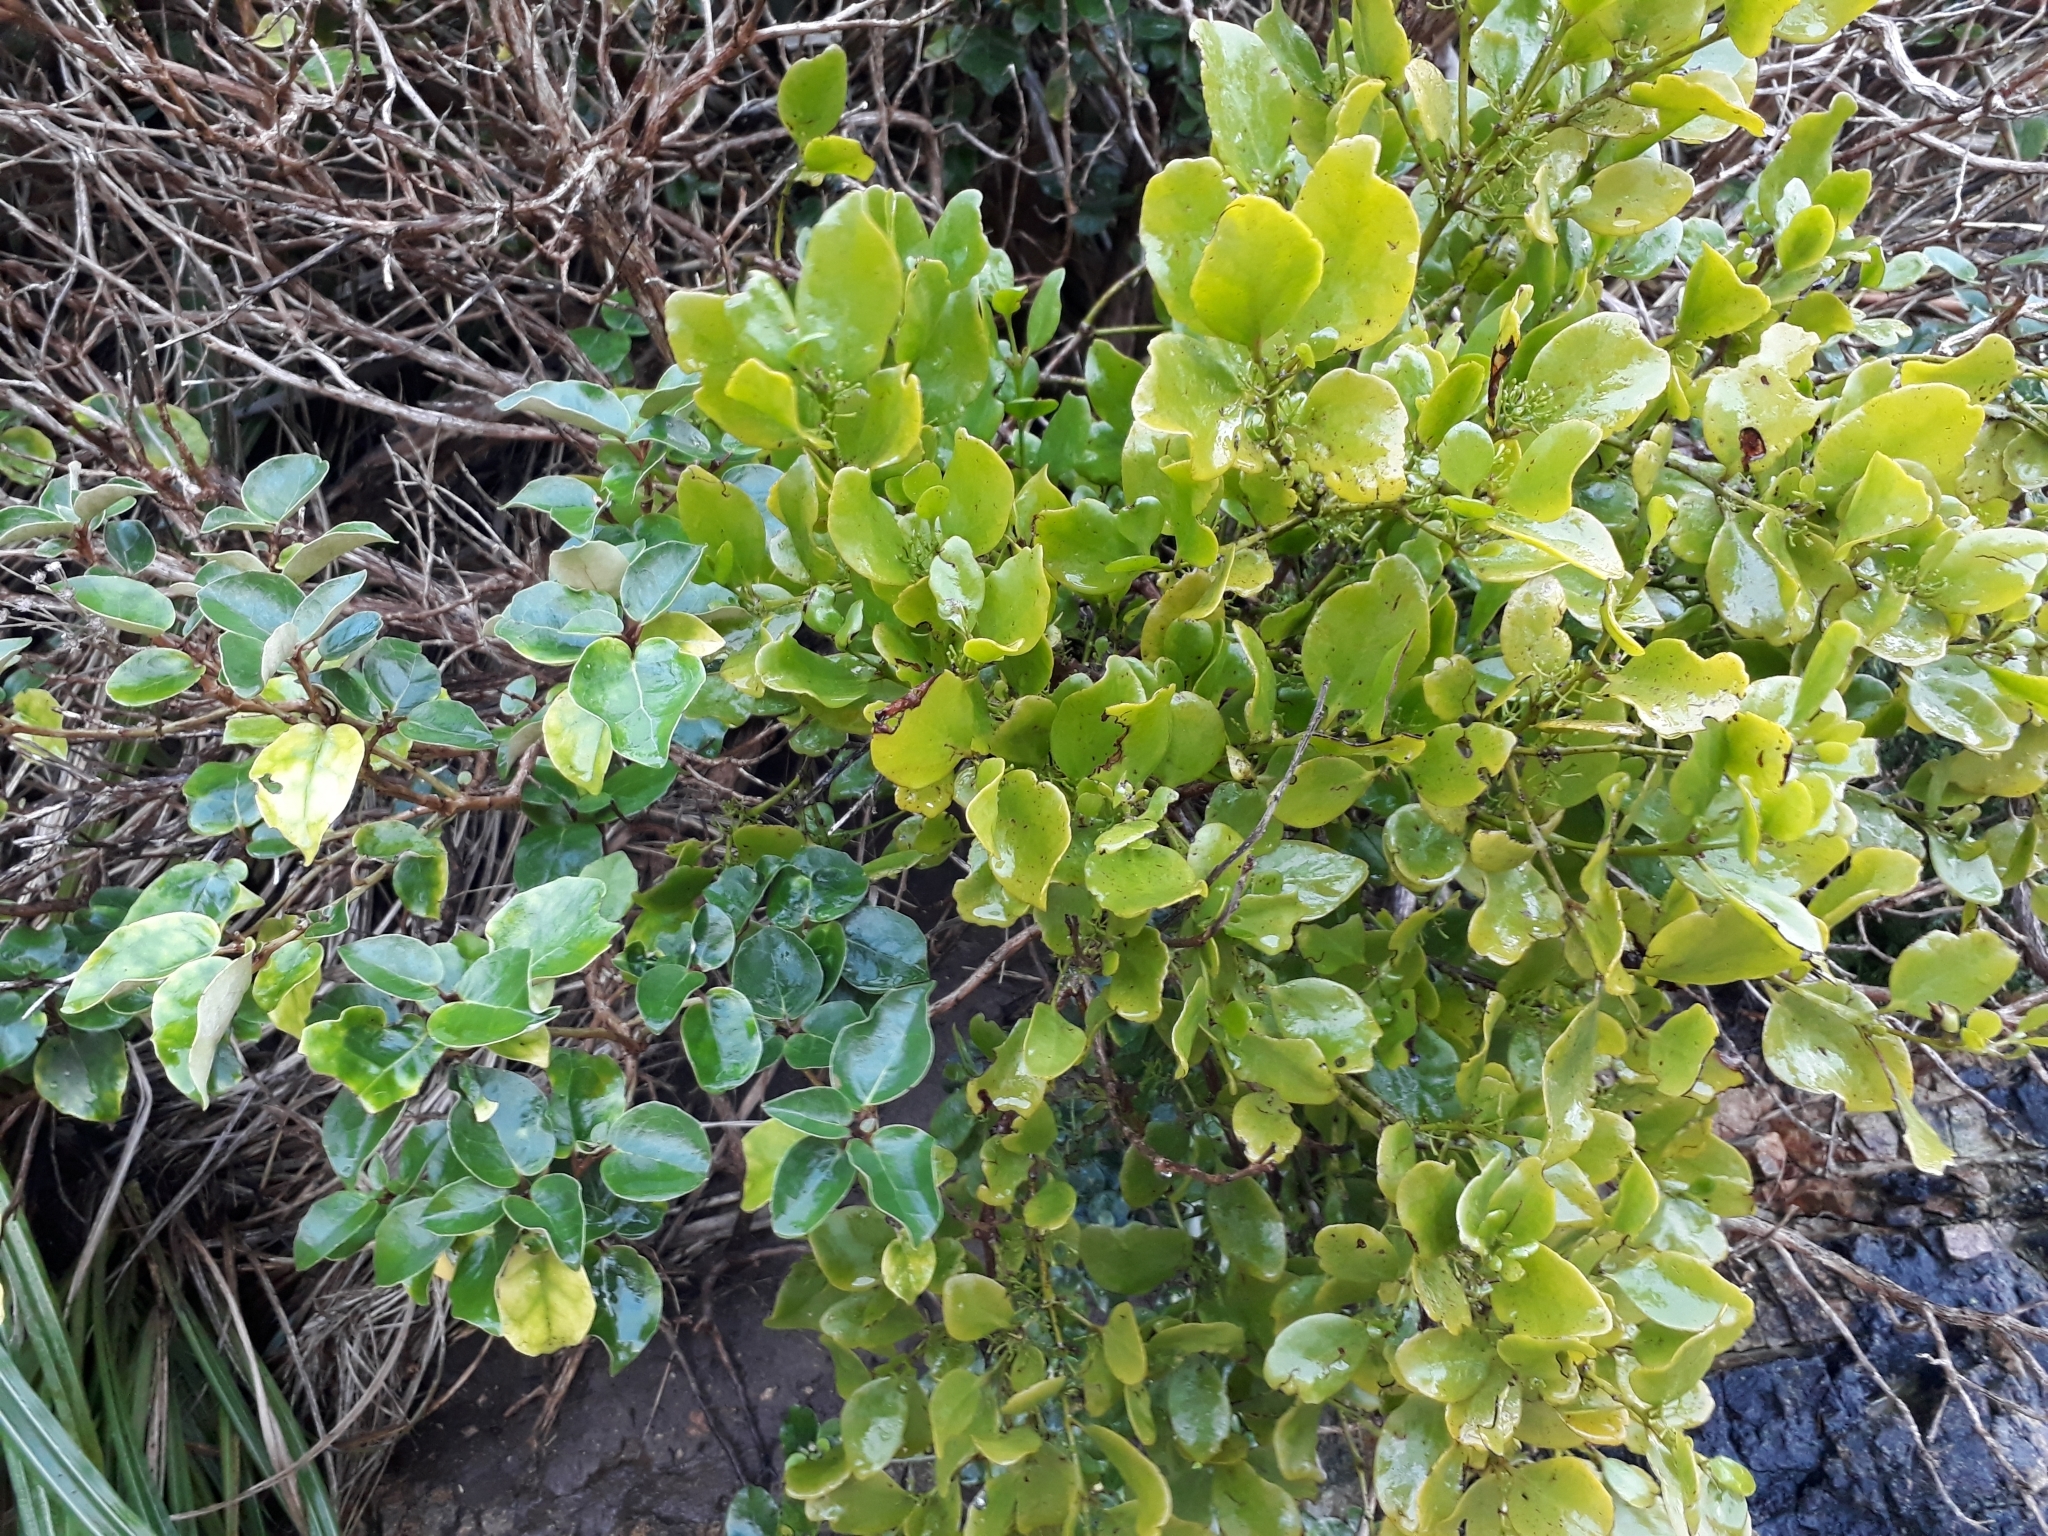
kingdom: Plantae
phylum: Tracheophyta
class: Magnoliopsida
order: Santalales
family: Loranthaceae
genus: Ileostylus
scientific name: Ileostylus micranthus
